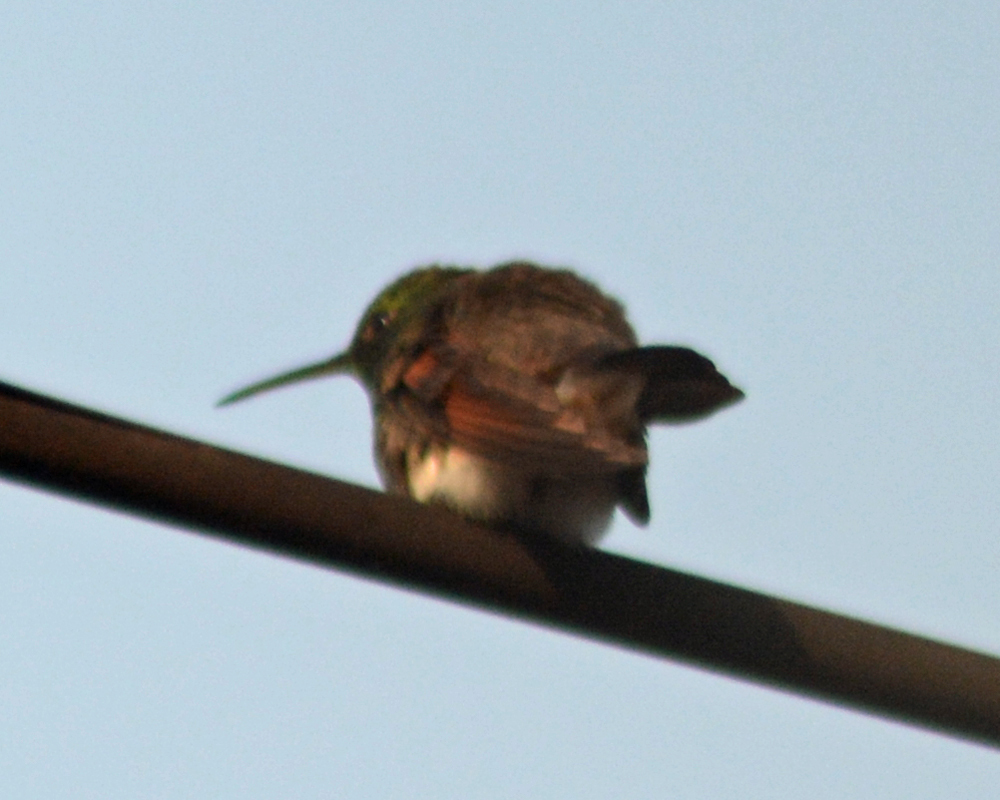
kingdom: Animalia
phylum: Chordata
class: Aves
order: Apodiformes
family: Trochilidae
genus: Saucerottia
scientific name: Saucerottia beryllina
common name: Berylline hummingbird
